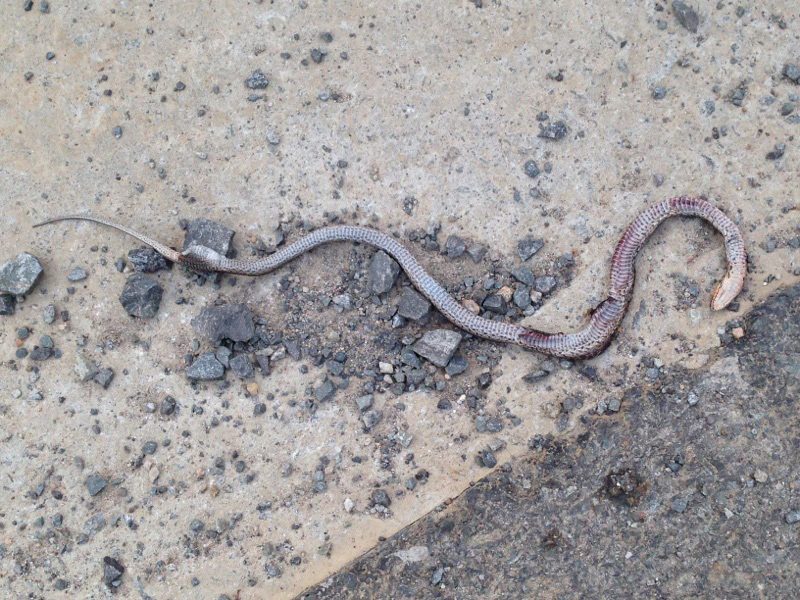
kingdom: Animalia
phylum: Chordata
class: Squamata
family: Colubridae
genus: Oocatochus
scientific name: Oocatochus rufodorsatus
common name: Frog-eating rat snake
